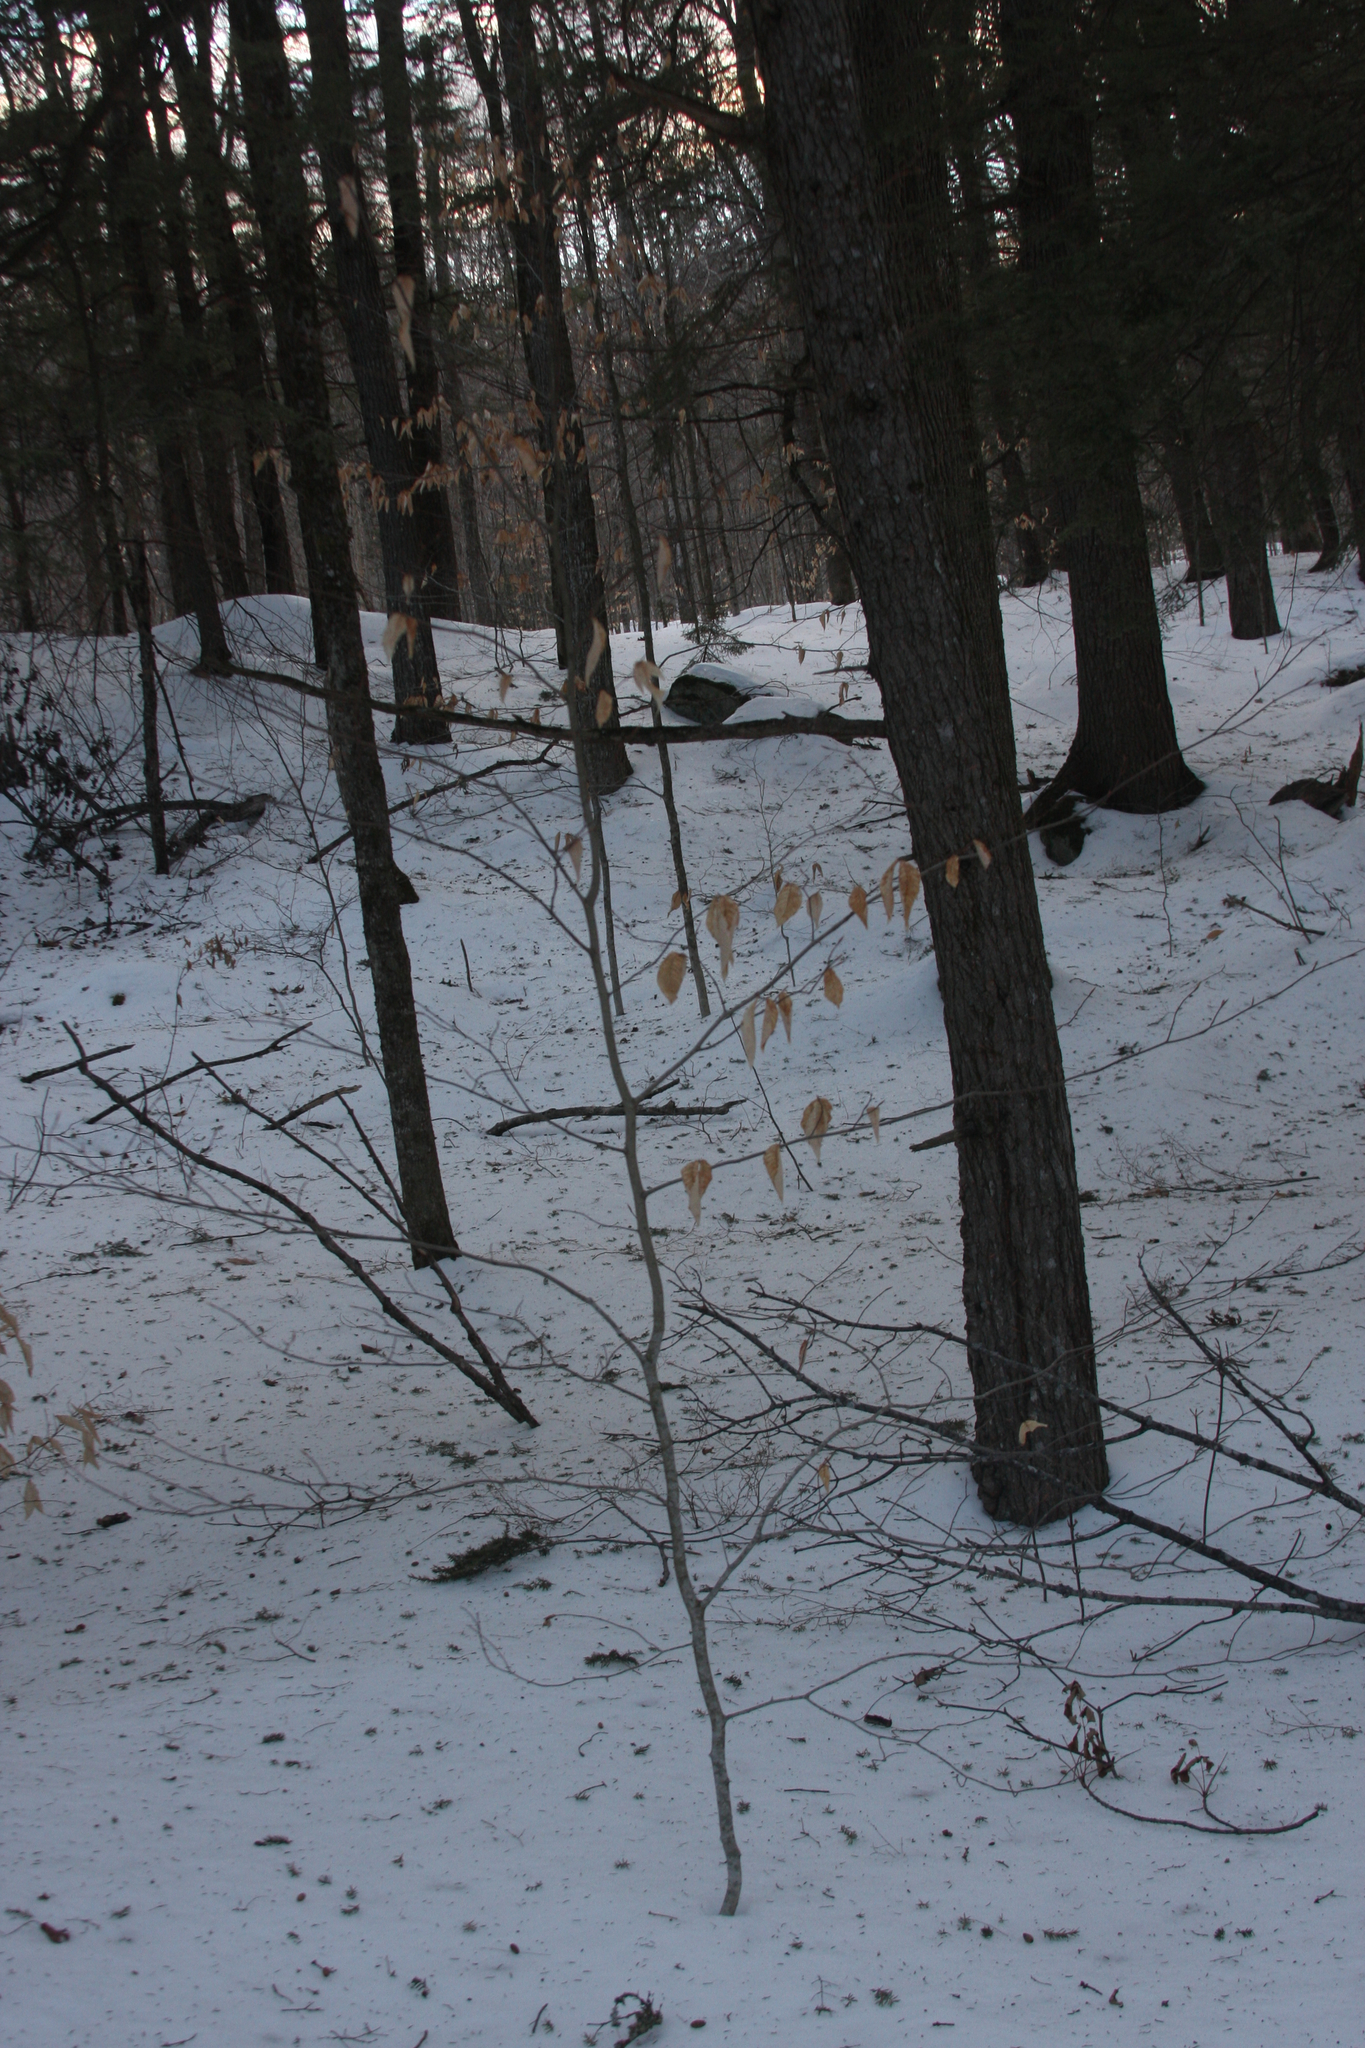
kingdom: Plantae
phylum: Tracheophyta
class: Magnoliopsida
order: Fagales
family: Fagaceae
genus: Fagus
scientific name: Fagus grandifolia
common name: American beech
